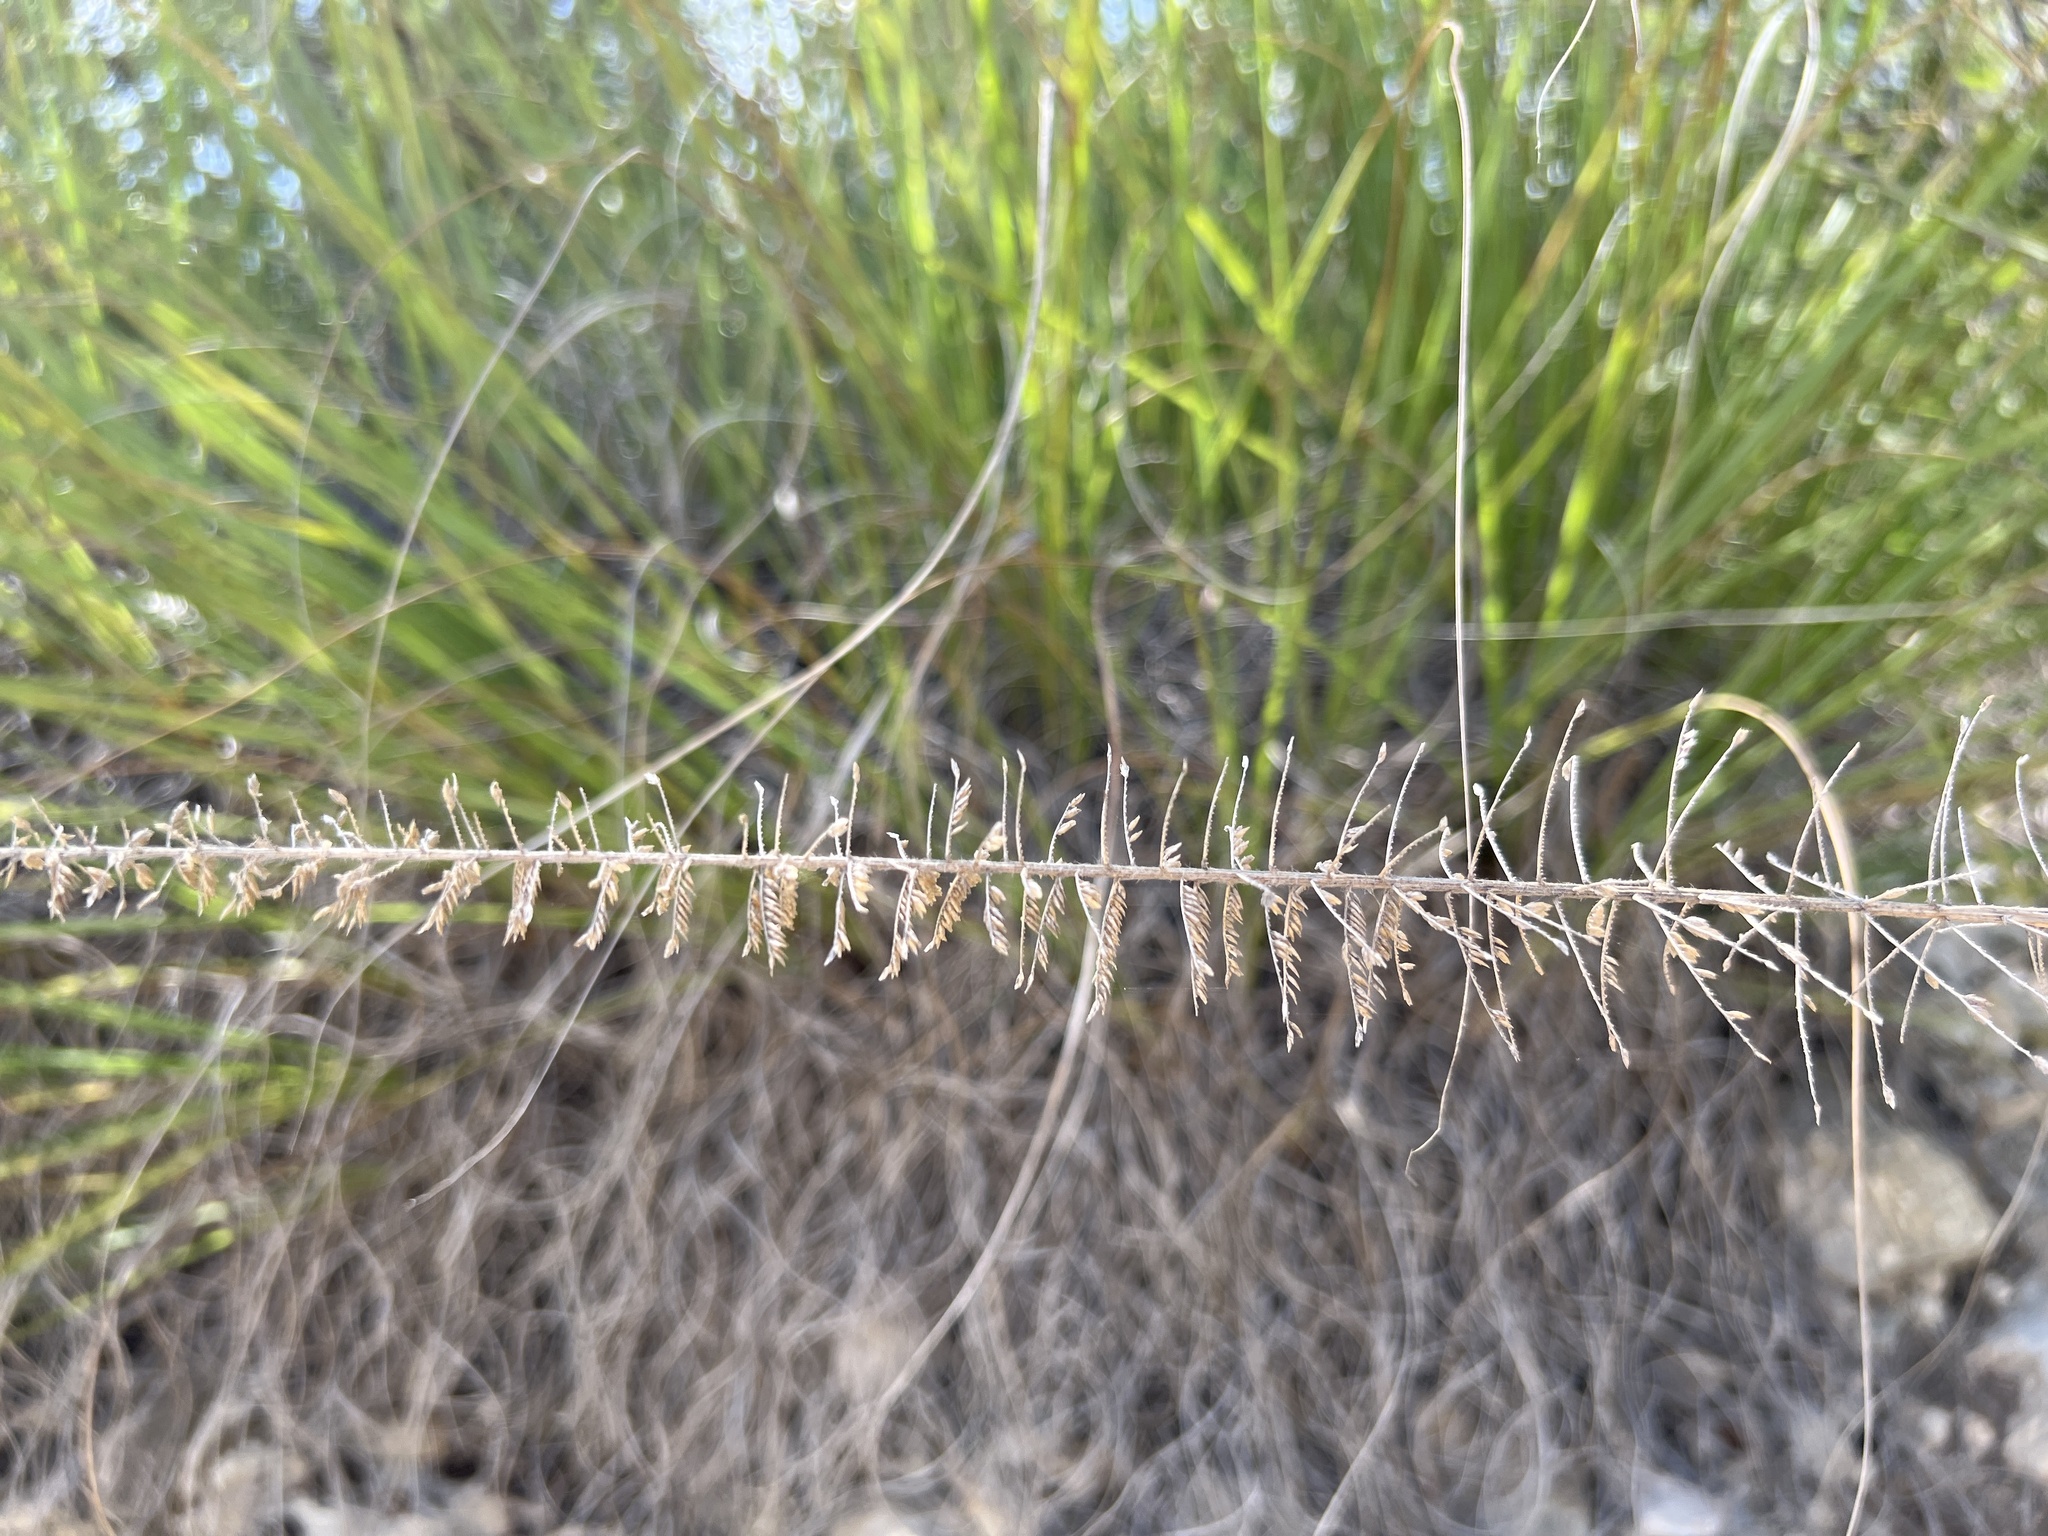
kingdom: Plantae
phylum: Tracheophyta
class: Liliopsida
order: Poales
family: Poaceae
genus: Uniola
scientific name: Uniola virgata
